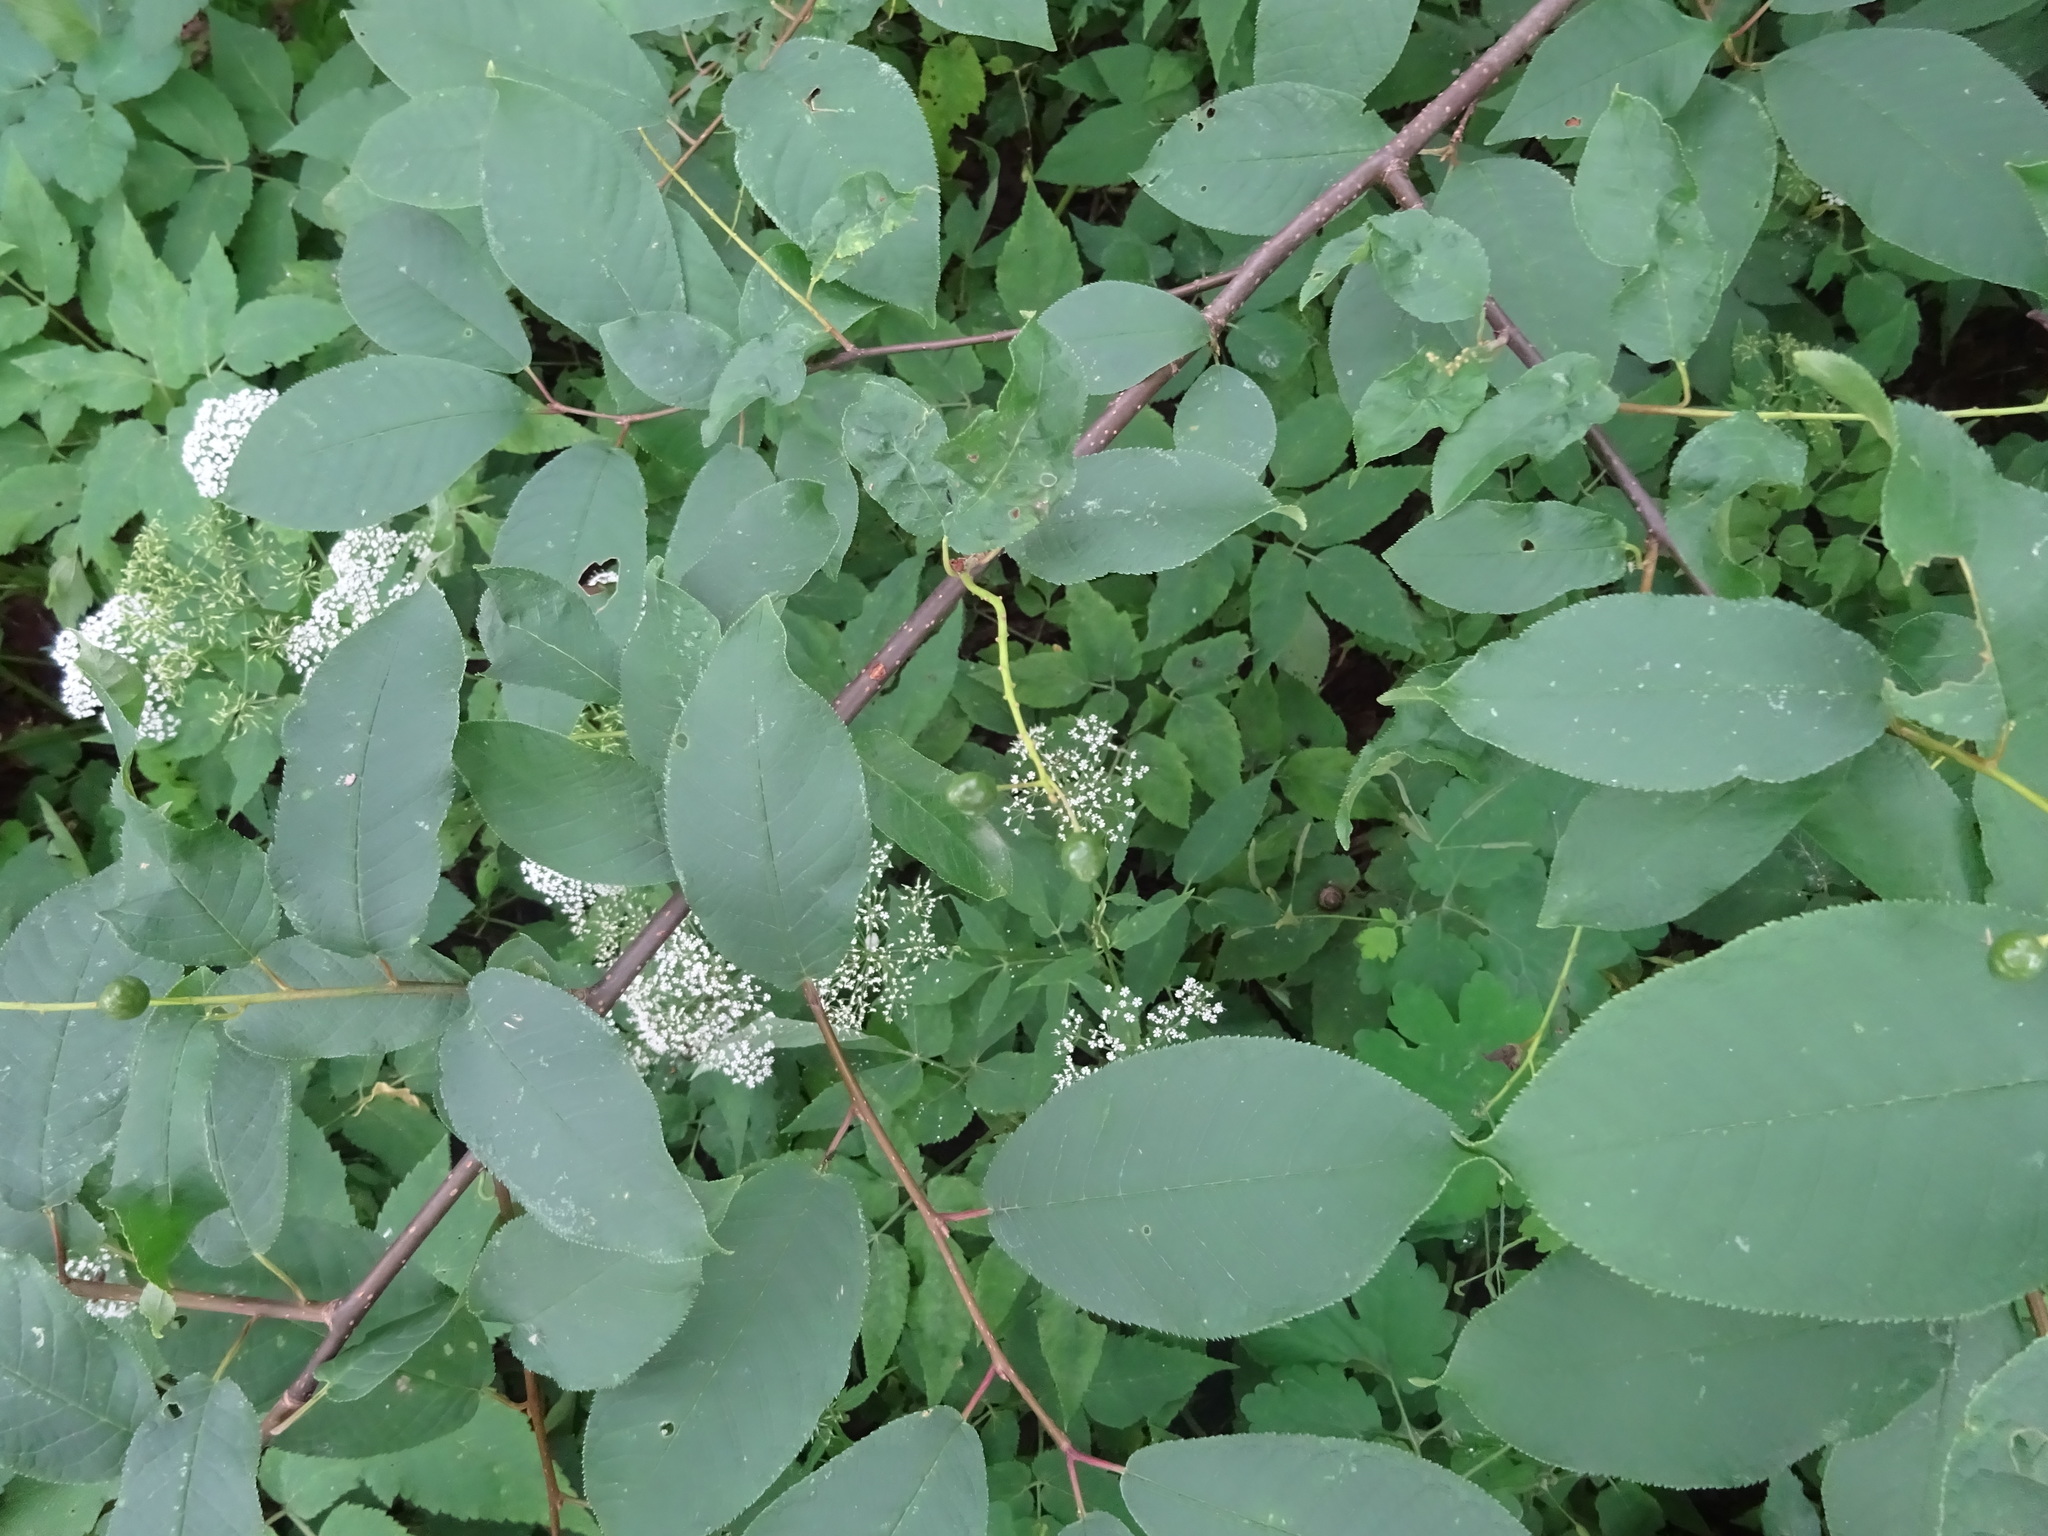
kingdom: Plantae
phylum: Tracheophyta
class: Magnoliopsida
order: Rosales
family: Rosaceae
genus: Prunus
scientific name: Prunus padus
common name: Bird cherry
